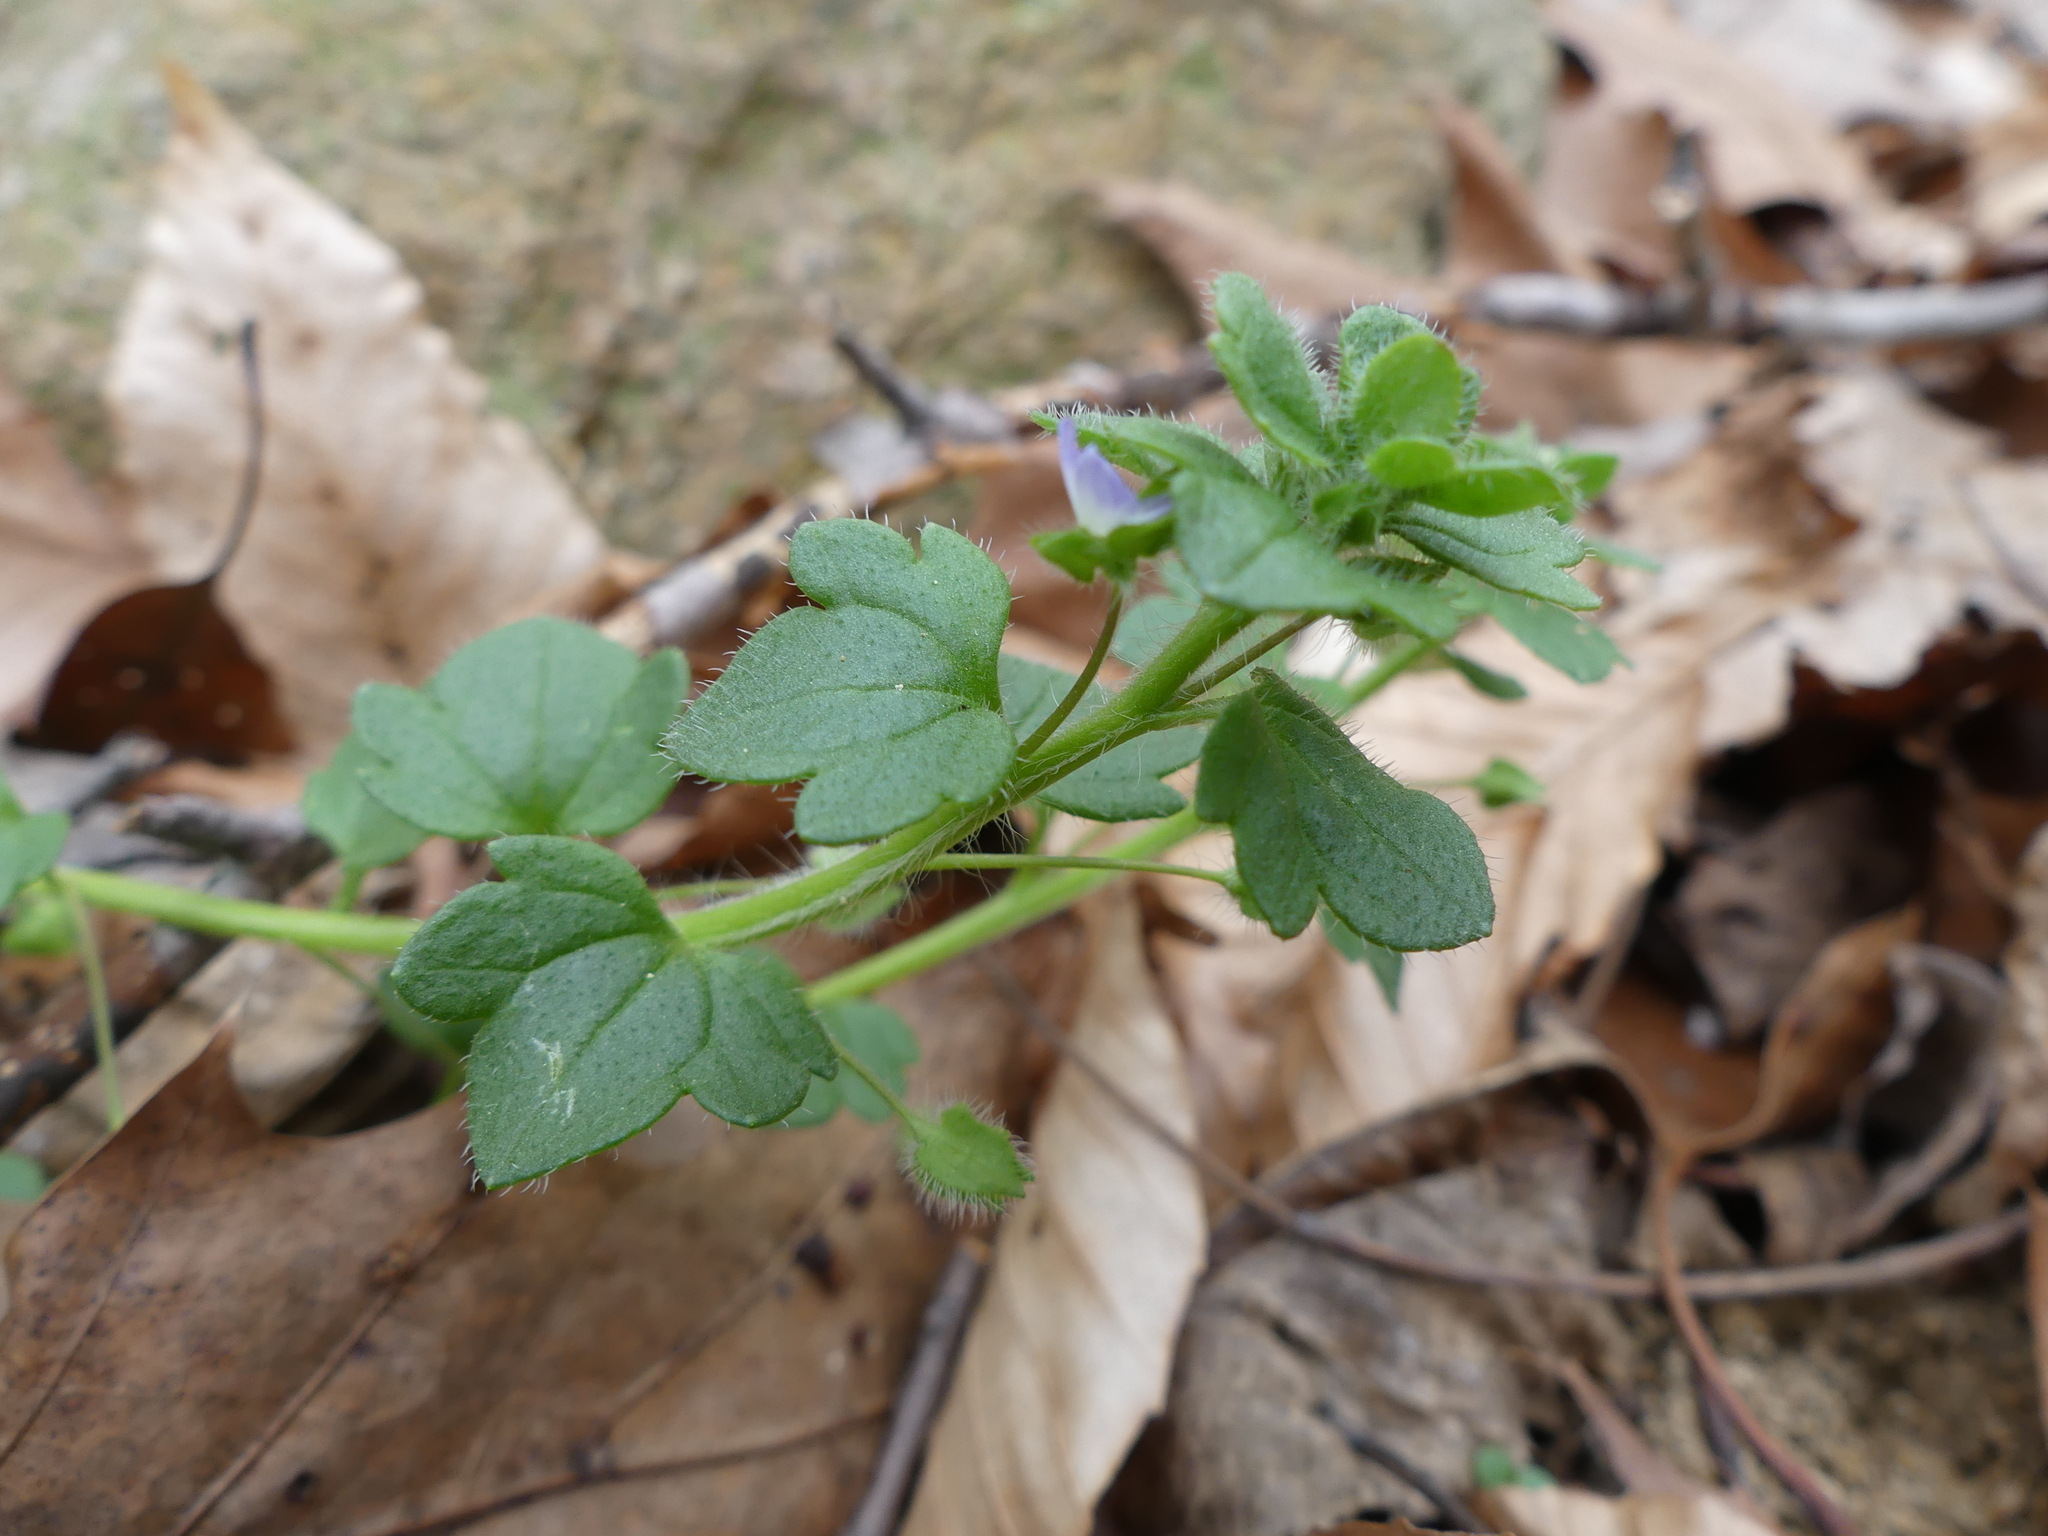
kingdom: Plantae
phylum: Tracheophyta
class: Magnoliopsida
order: Lamiales
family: Plantaginaceae
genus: Veronica
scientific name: Veronica hederifolia
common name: Ivy-leaved speedwell
